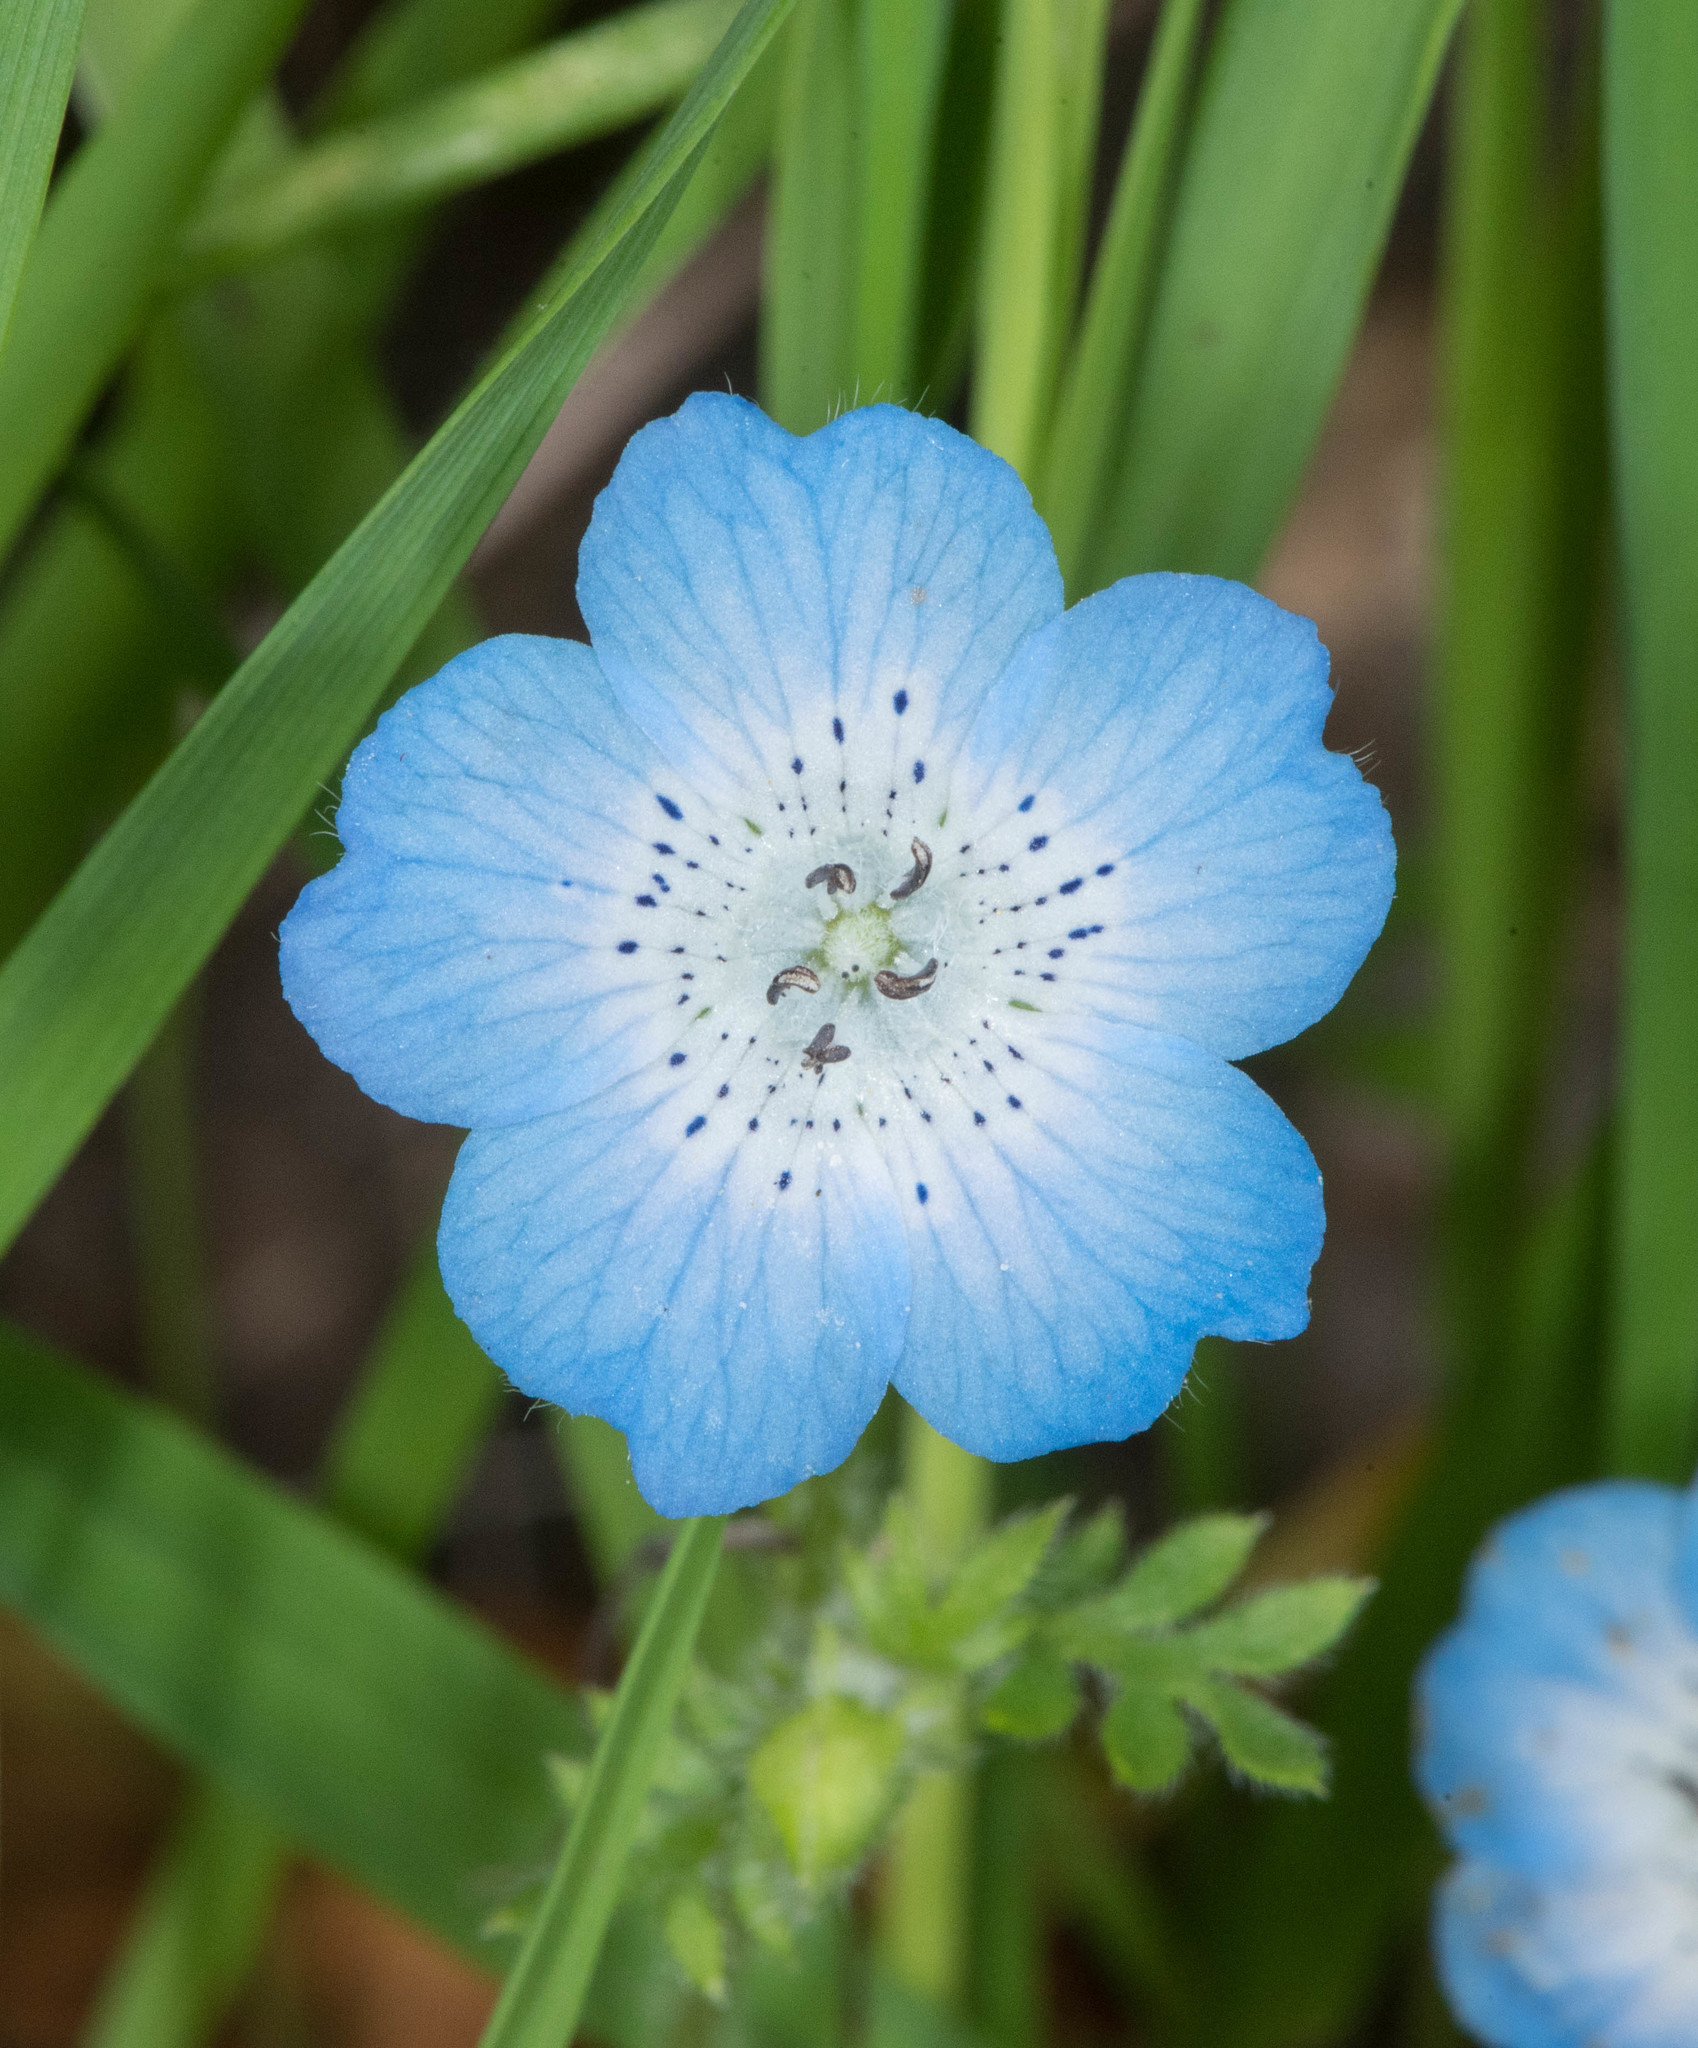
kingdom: Plantae
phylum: Tracheophyta
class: Magnoliopsida
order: Boraginales
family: Hydrophyllaceae
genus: Nemophila
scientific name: Nemophila menziesii
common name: Baby's-blue-eyes
